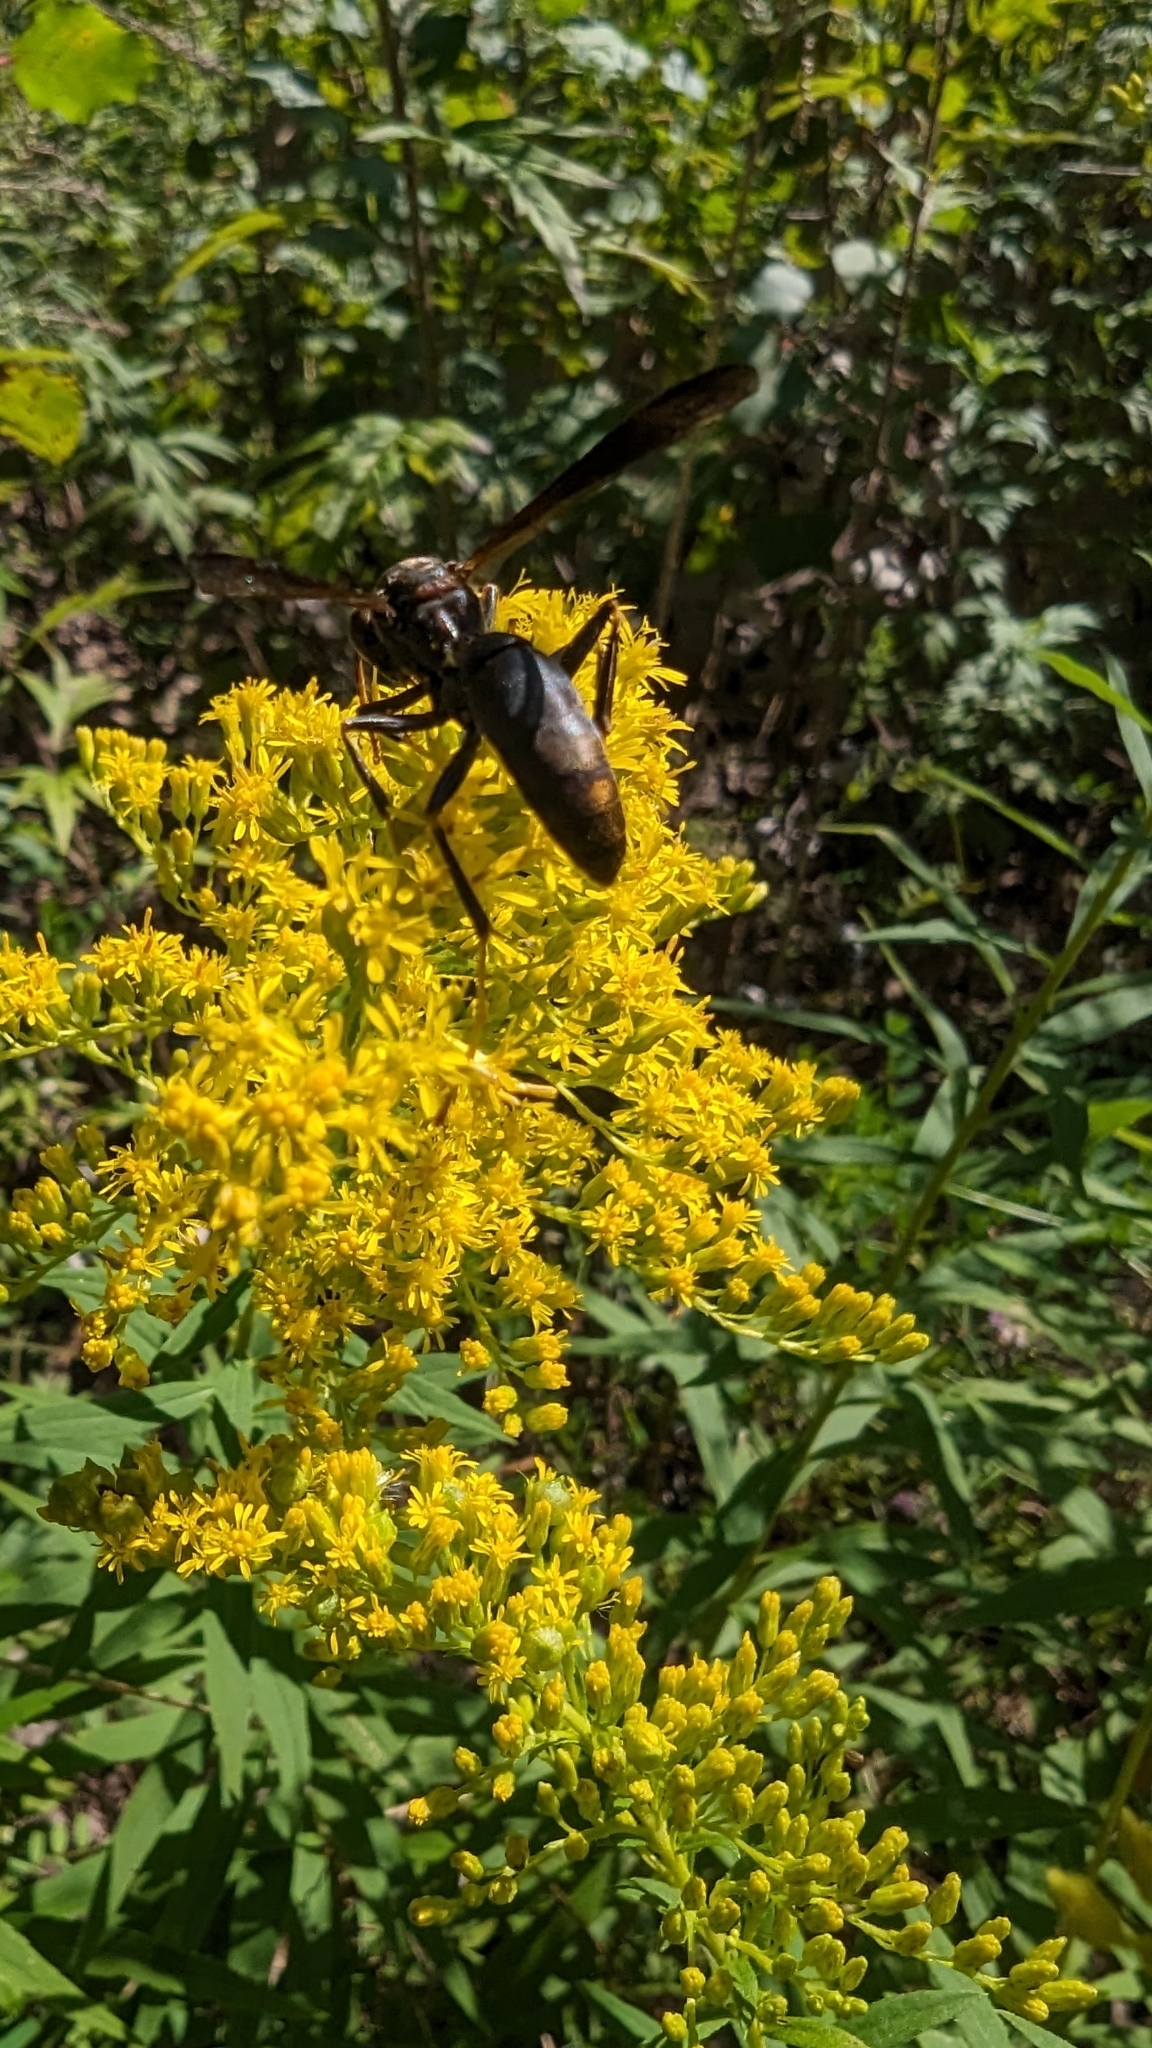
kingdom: Animalia
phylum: Arthropoda
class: Insecta
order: Hymenoptera
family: Eumenidae
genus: Polistes
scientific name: Polistes metricus
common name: Metric paper wasp
